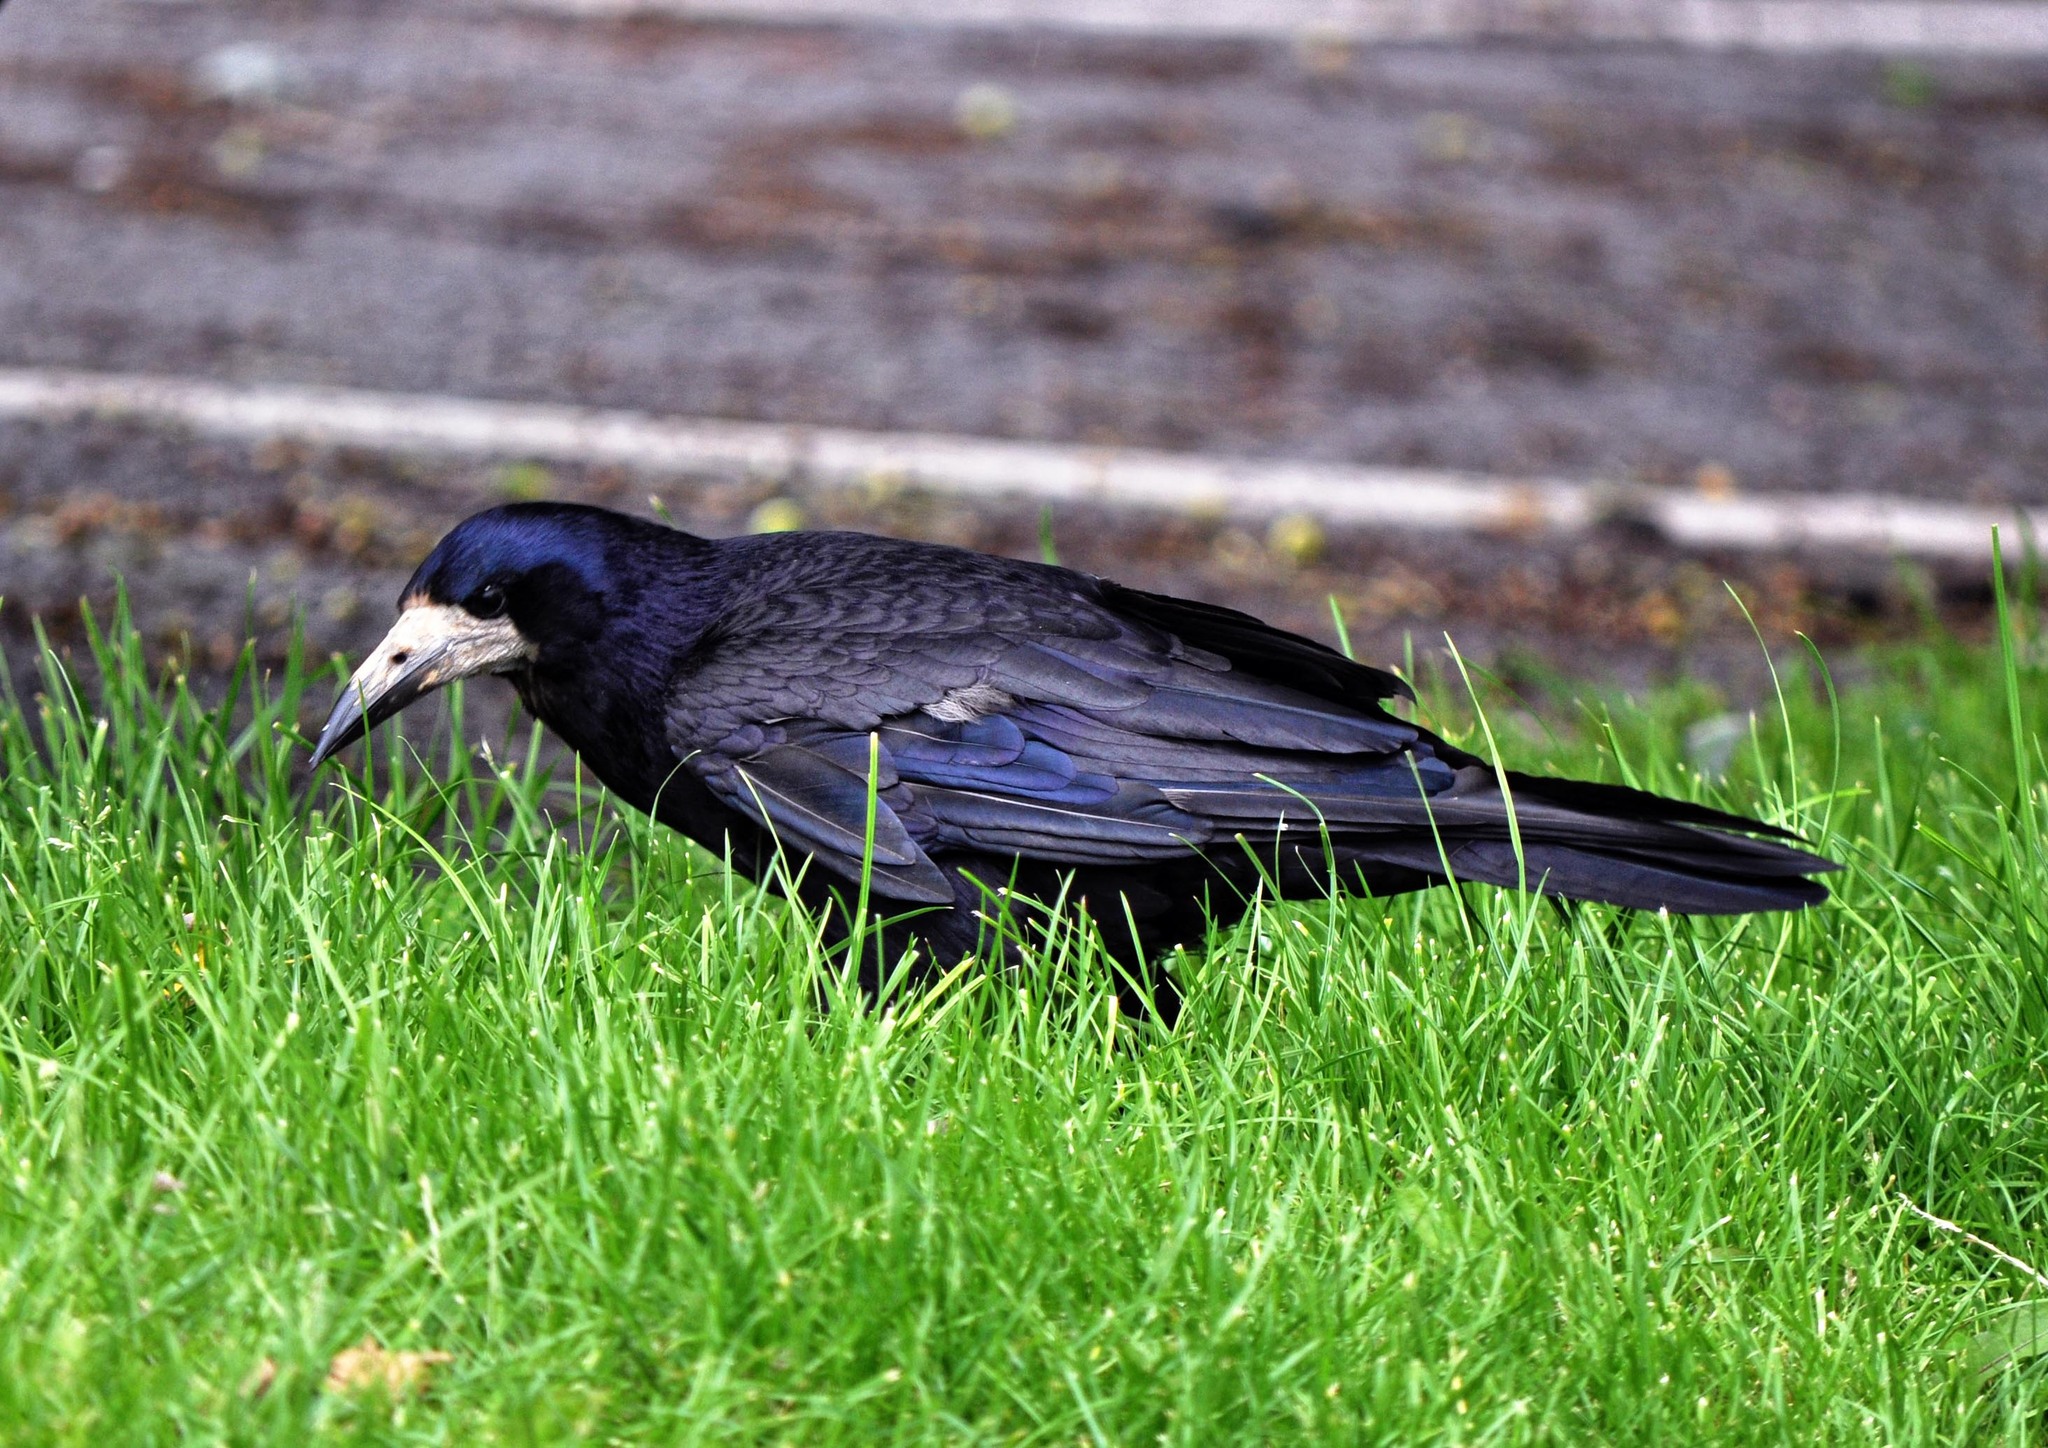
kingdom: Animalia
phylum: Chordata
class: Aves
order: Passeriformes
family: Corvidae
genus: Corvus
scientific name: Corvus frugilegus
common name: Rook
